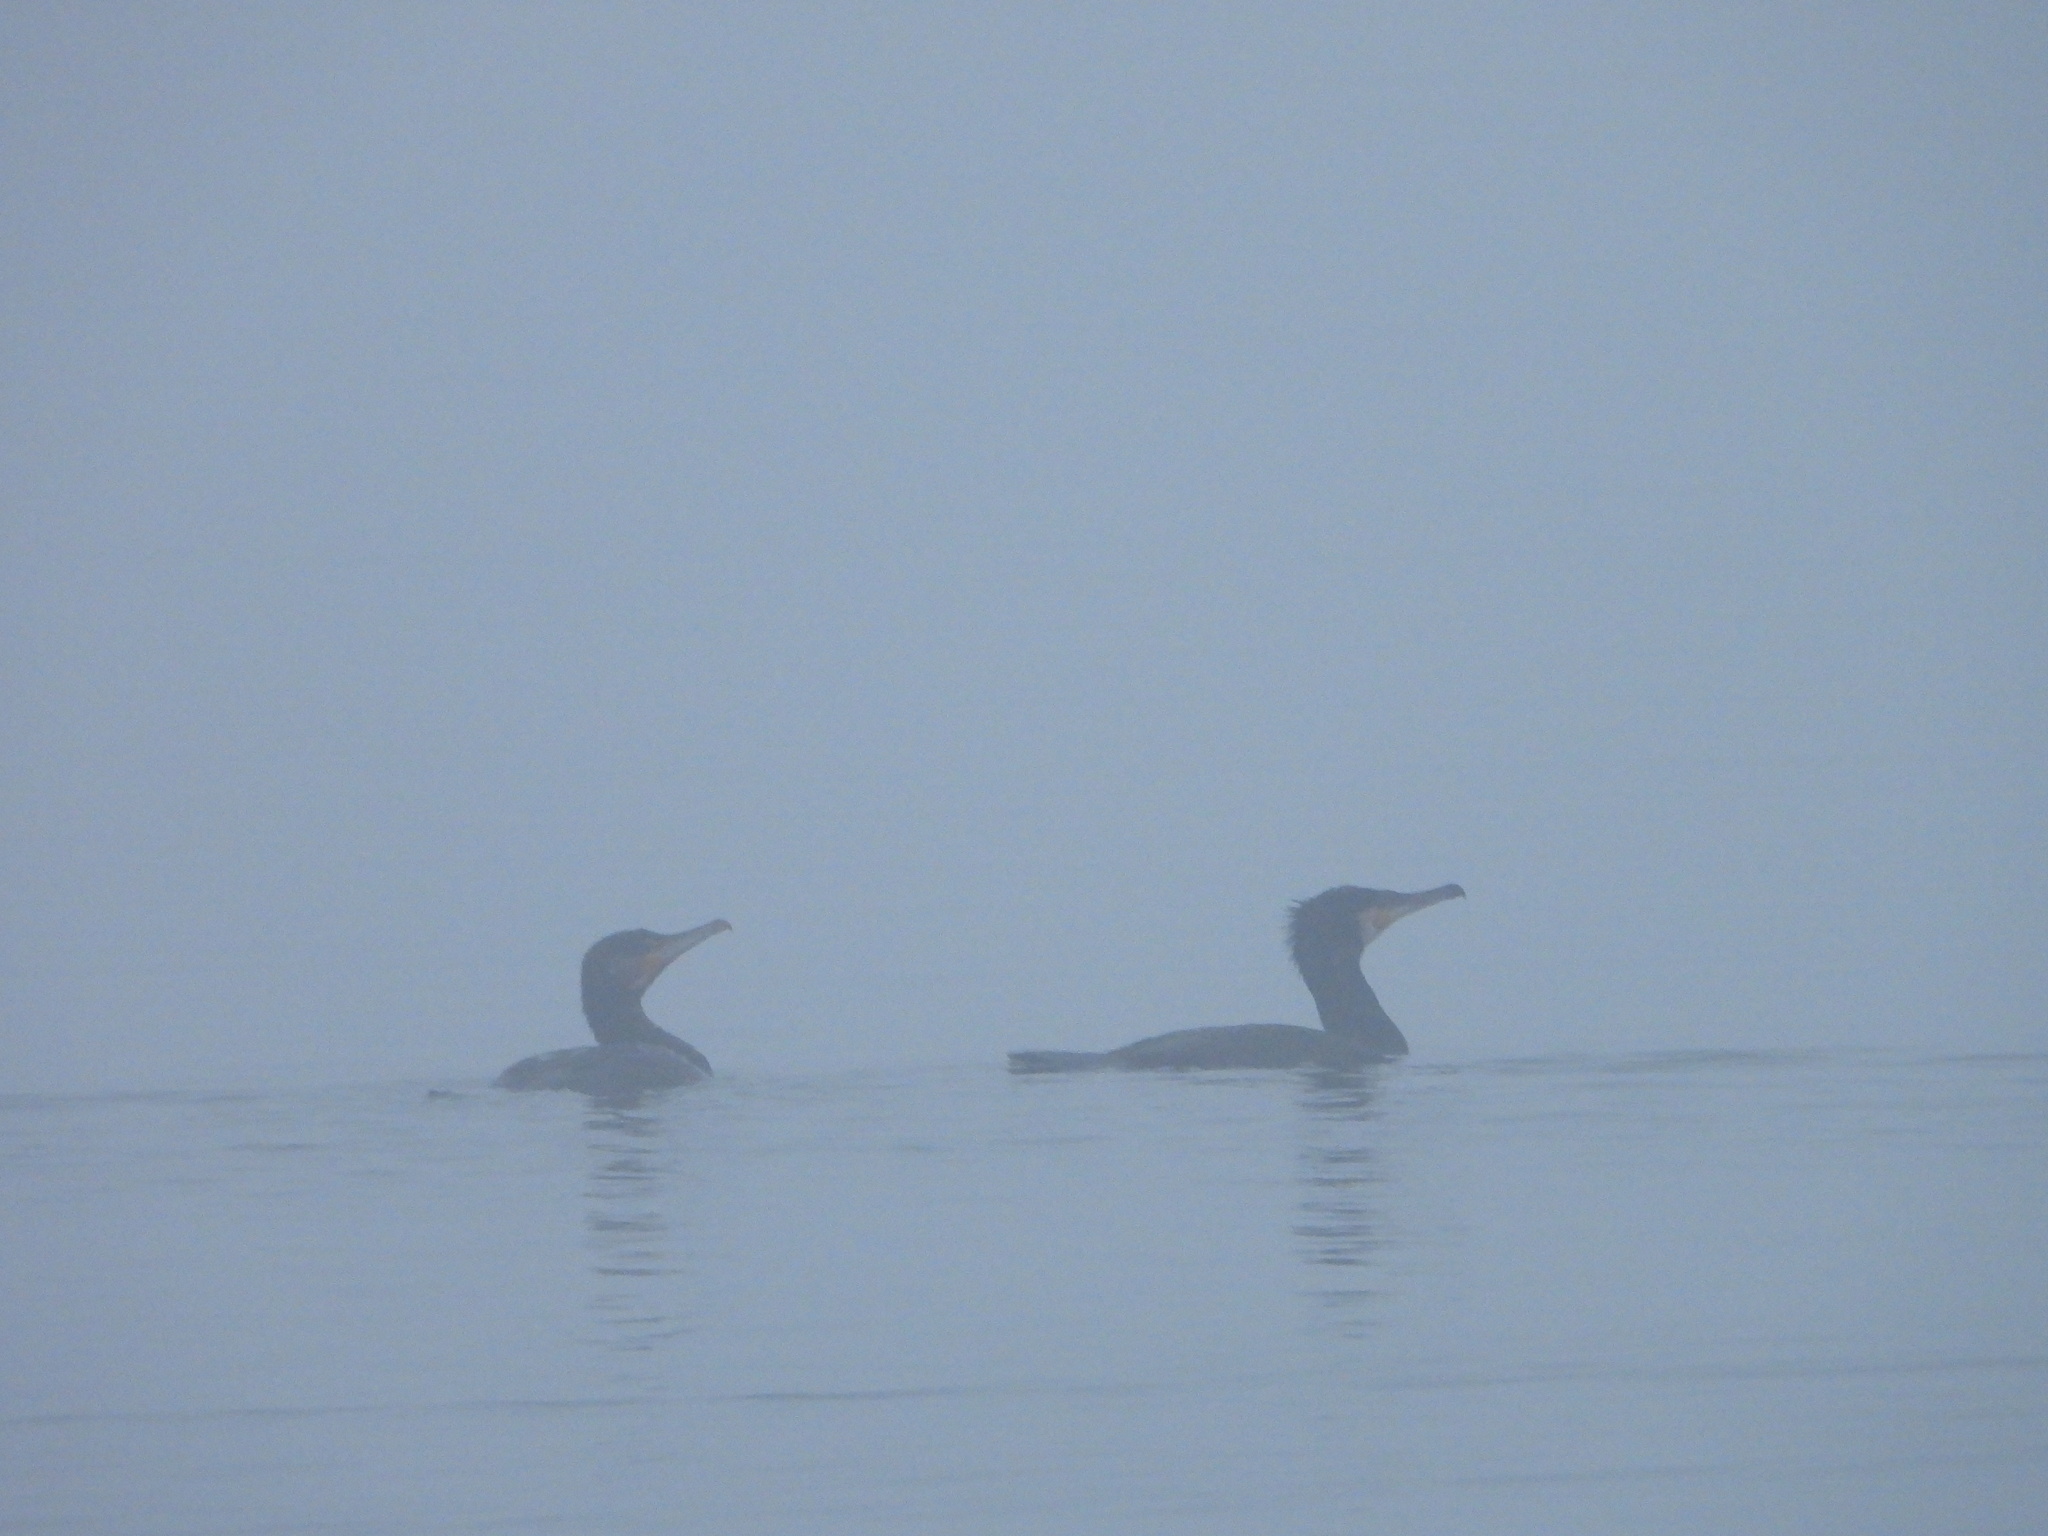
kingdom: Animalia
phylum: Chordata
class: Aves
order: Suliformes
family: Phalacrocoracidae
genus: Phalacrocorax
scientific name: Phalacrocorax carbo
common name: Great cormorant
